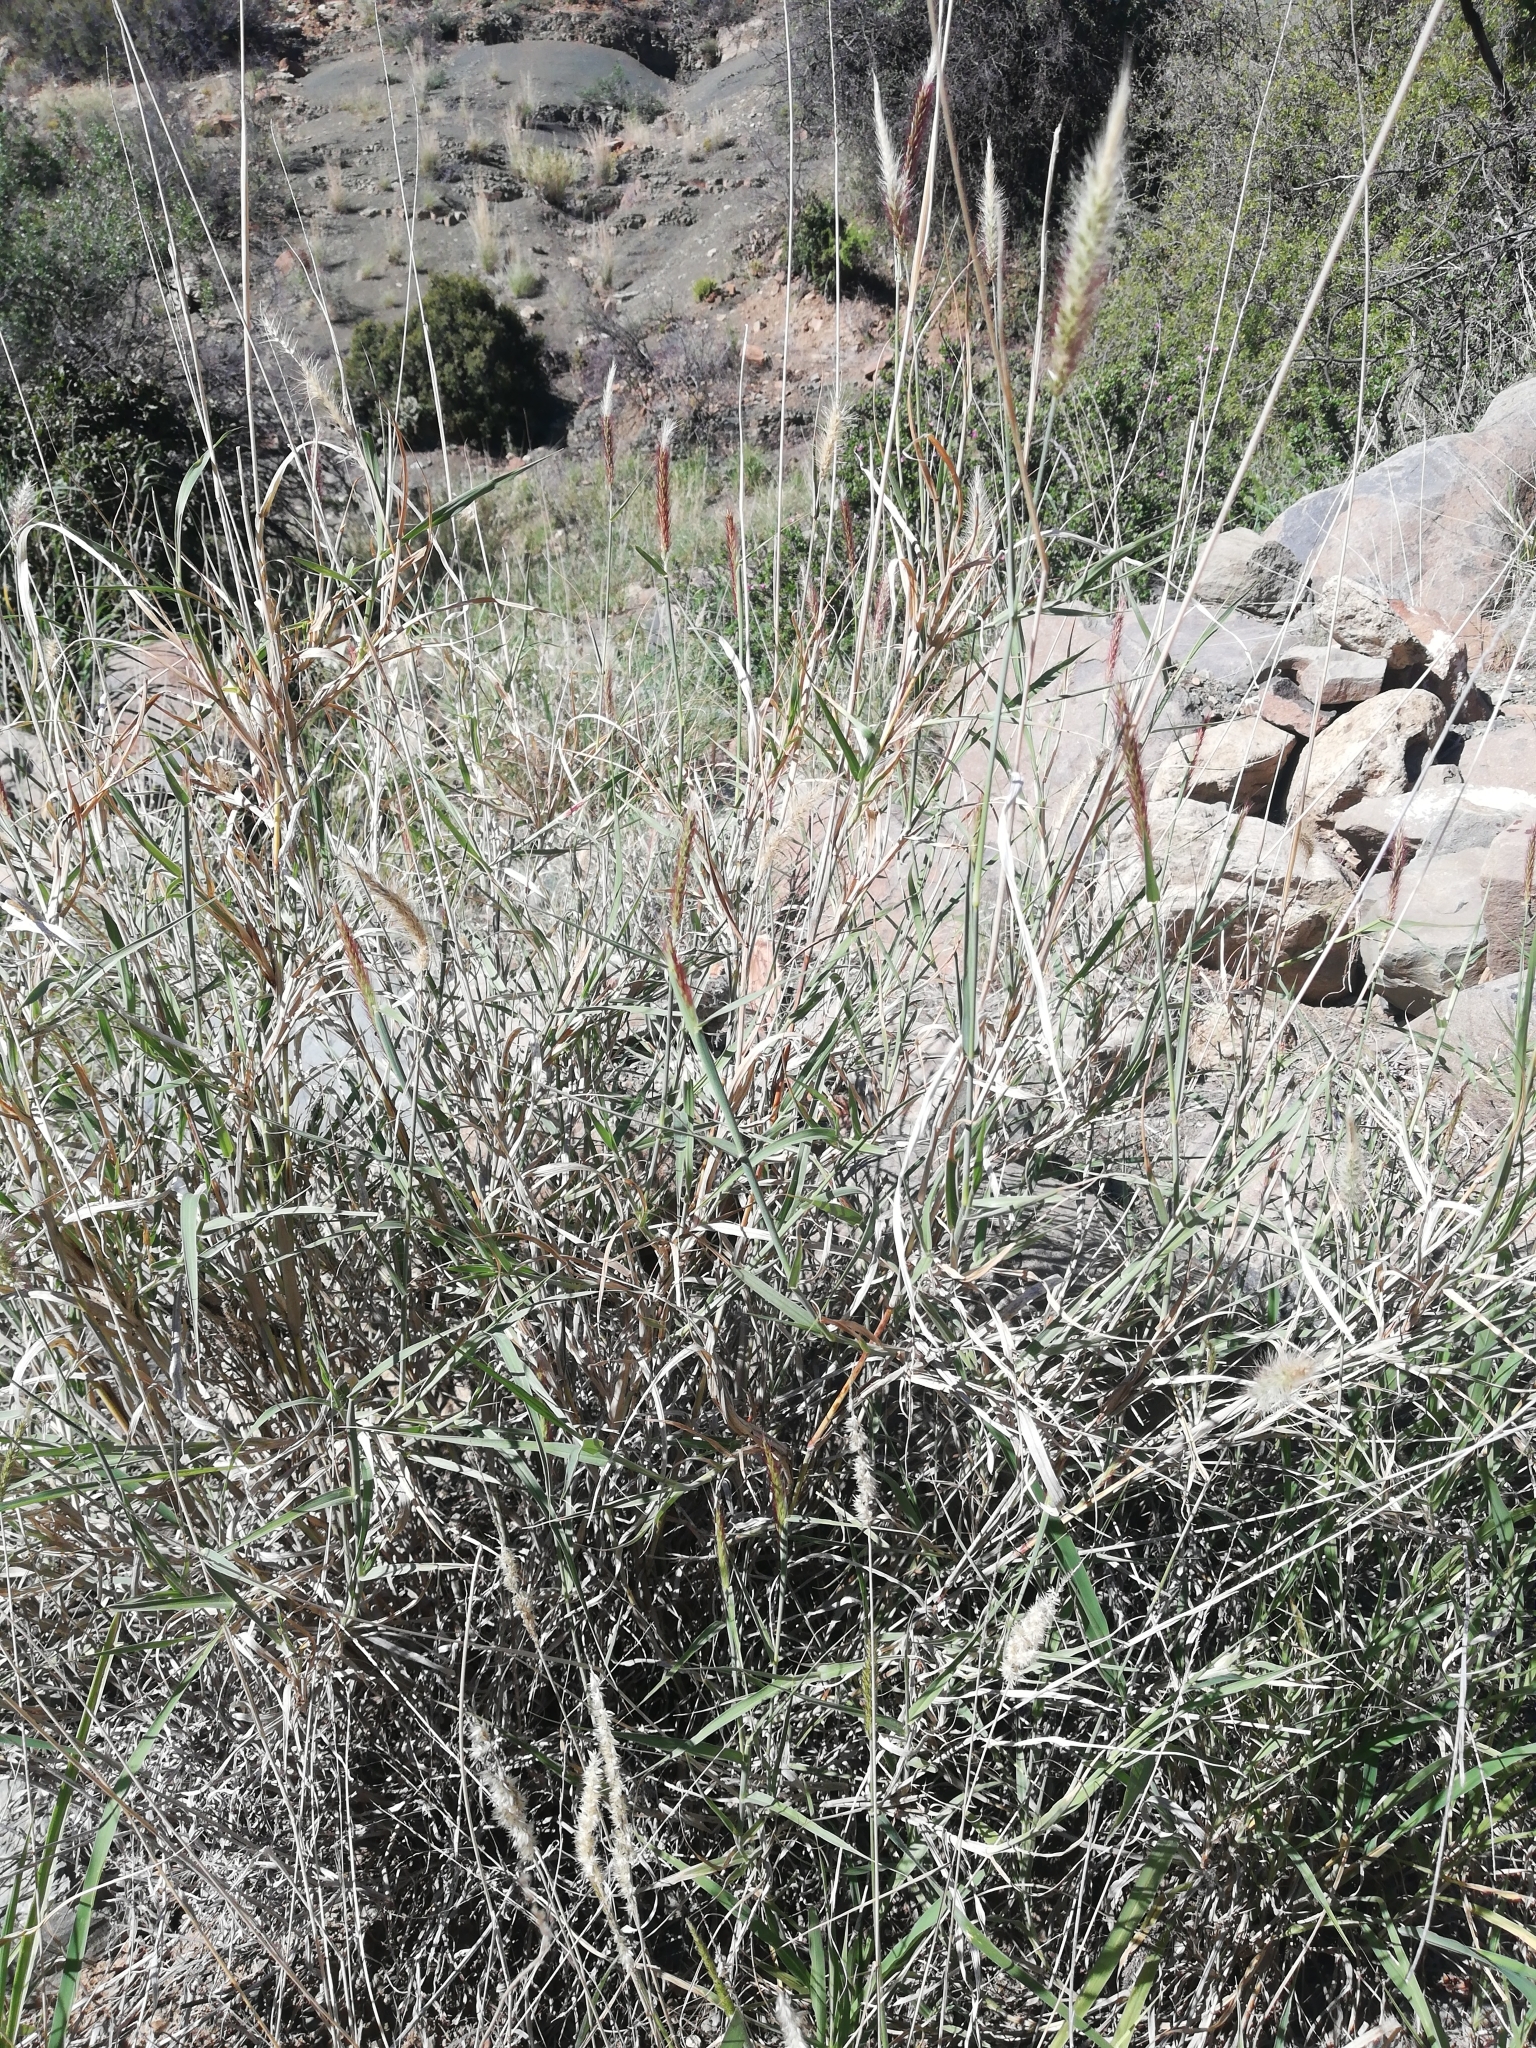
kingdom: Plantae
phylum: Tracheophyta
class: Liliopsida
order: Poales
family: Poaceae
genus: Cenchrus
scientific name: Cenchrus ciliaris
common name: Buffelgrass
